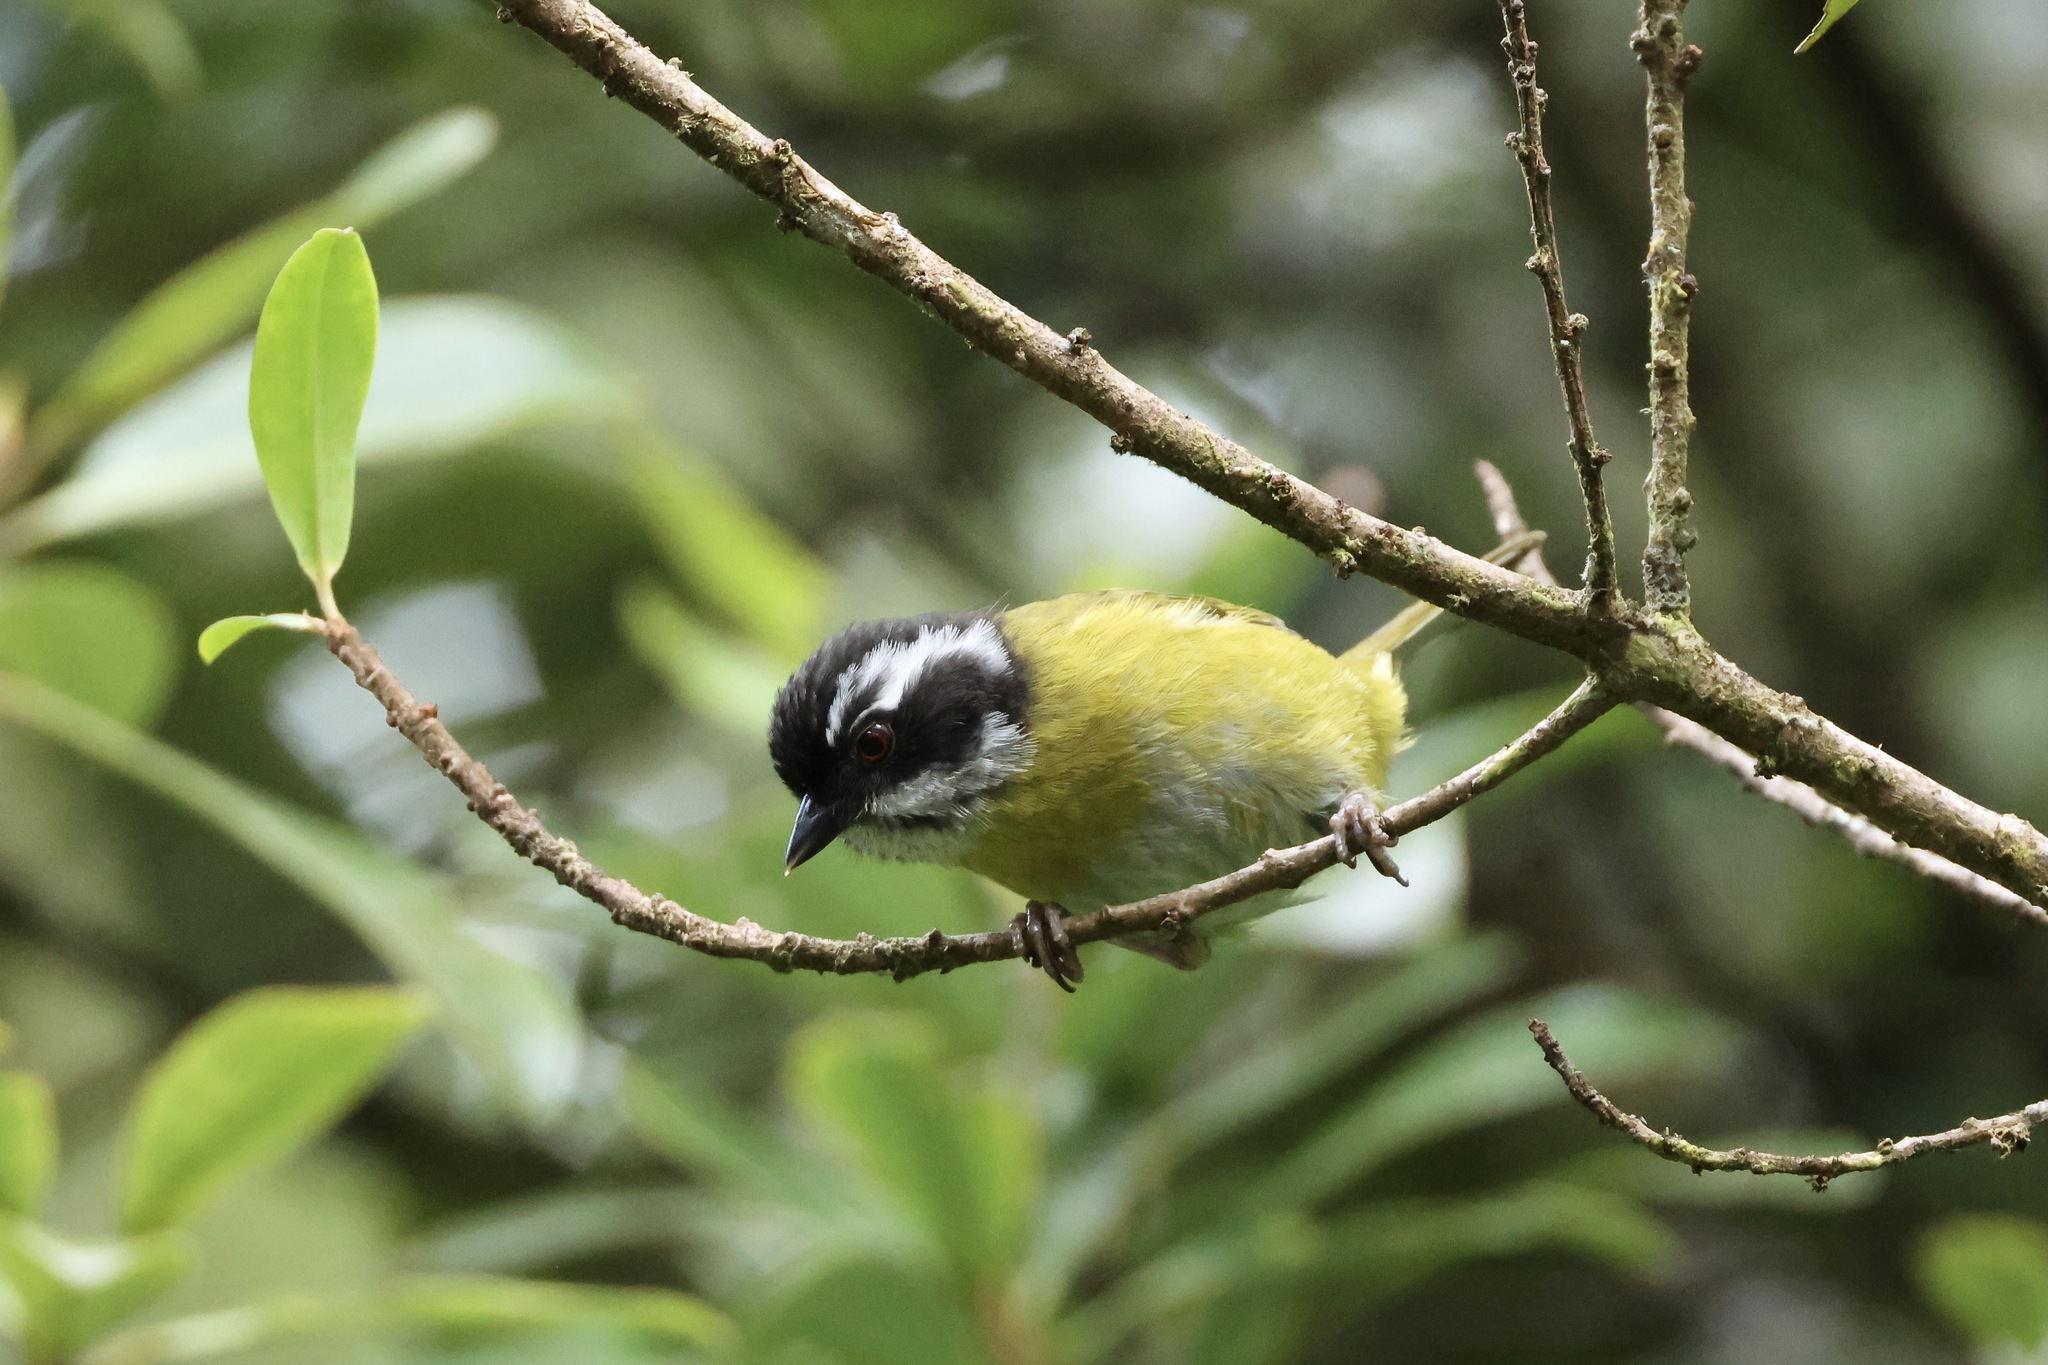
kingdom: Animalia
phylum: Chordata
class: Aves
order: Passeriformes
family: Passerellidae
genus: Chlorospingus
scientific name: Chlorospingus pileatus
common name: Sooty-capped bush-tanager
